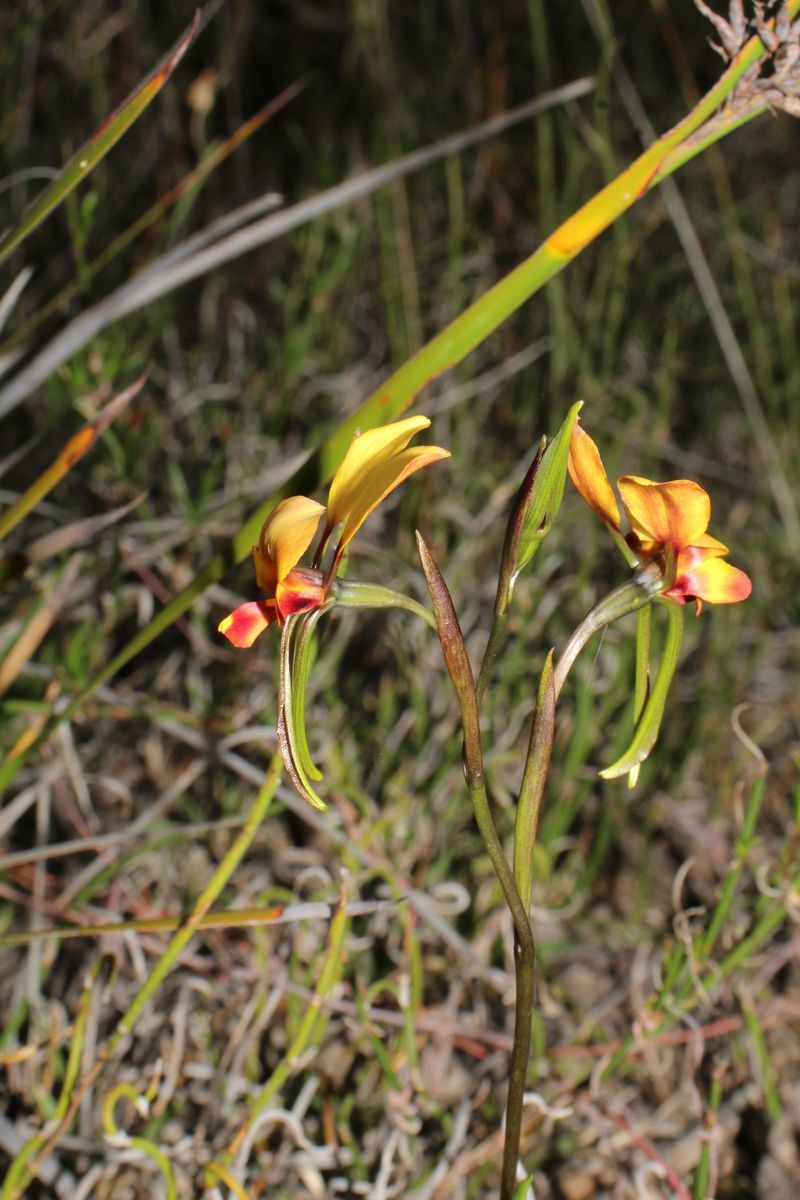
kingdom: Plantae
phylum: Tracheophyta
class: Liliopsida
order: Asparagales
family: Orchidaceae
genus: Diuris
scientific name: Diuris brockmanii
